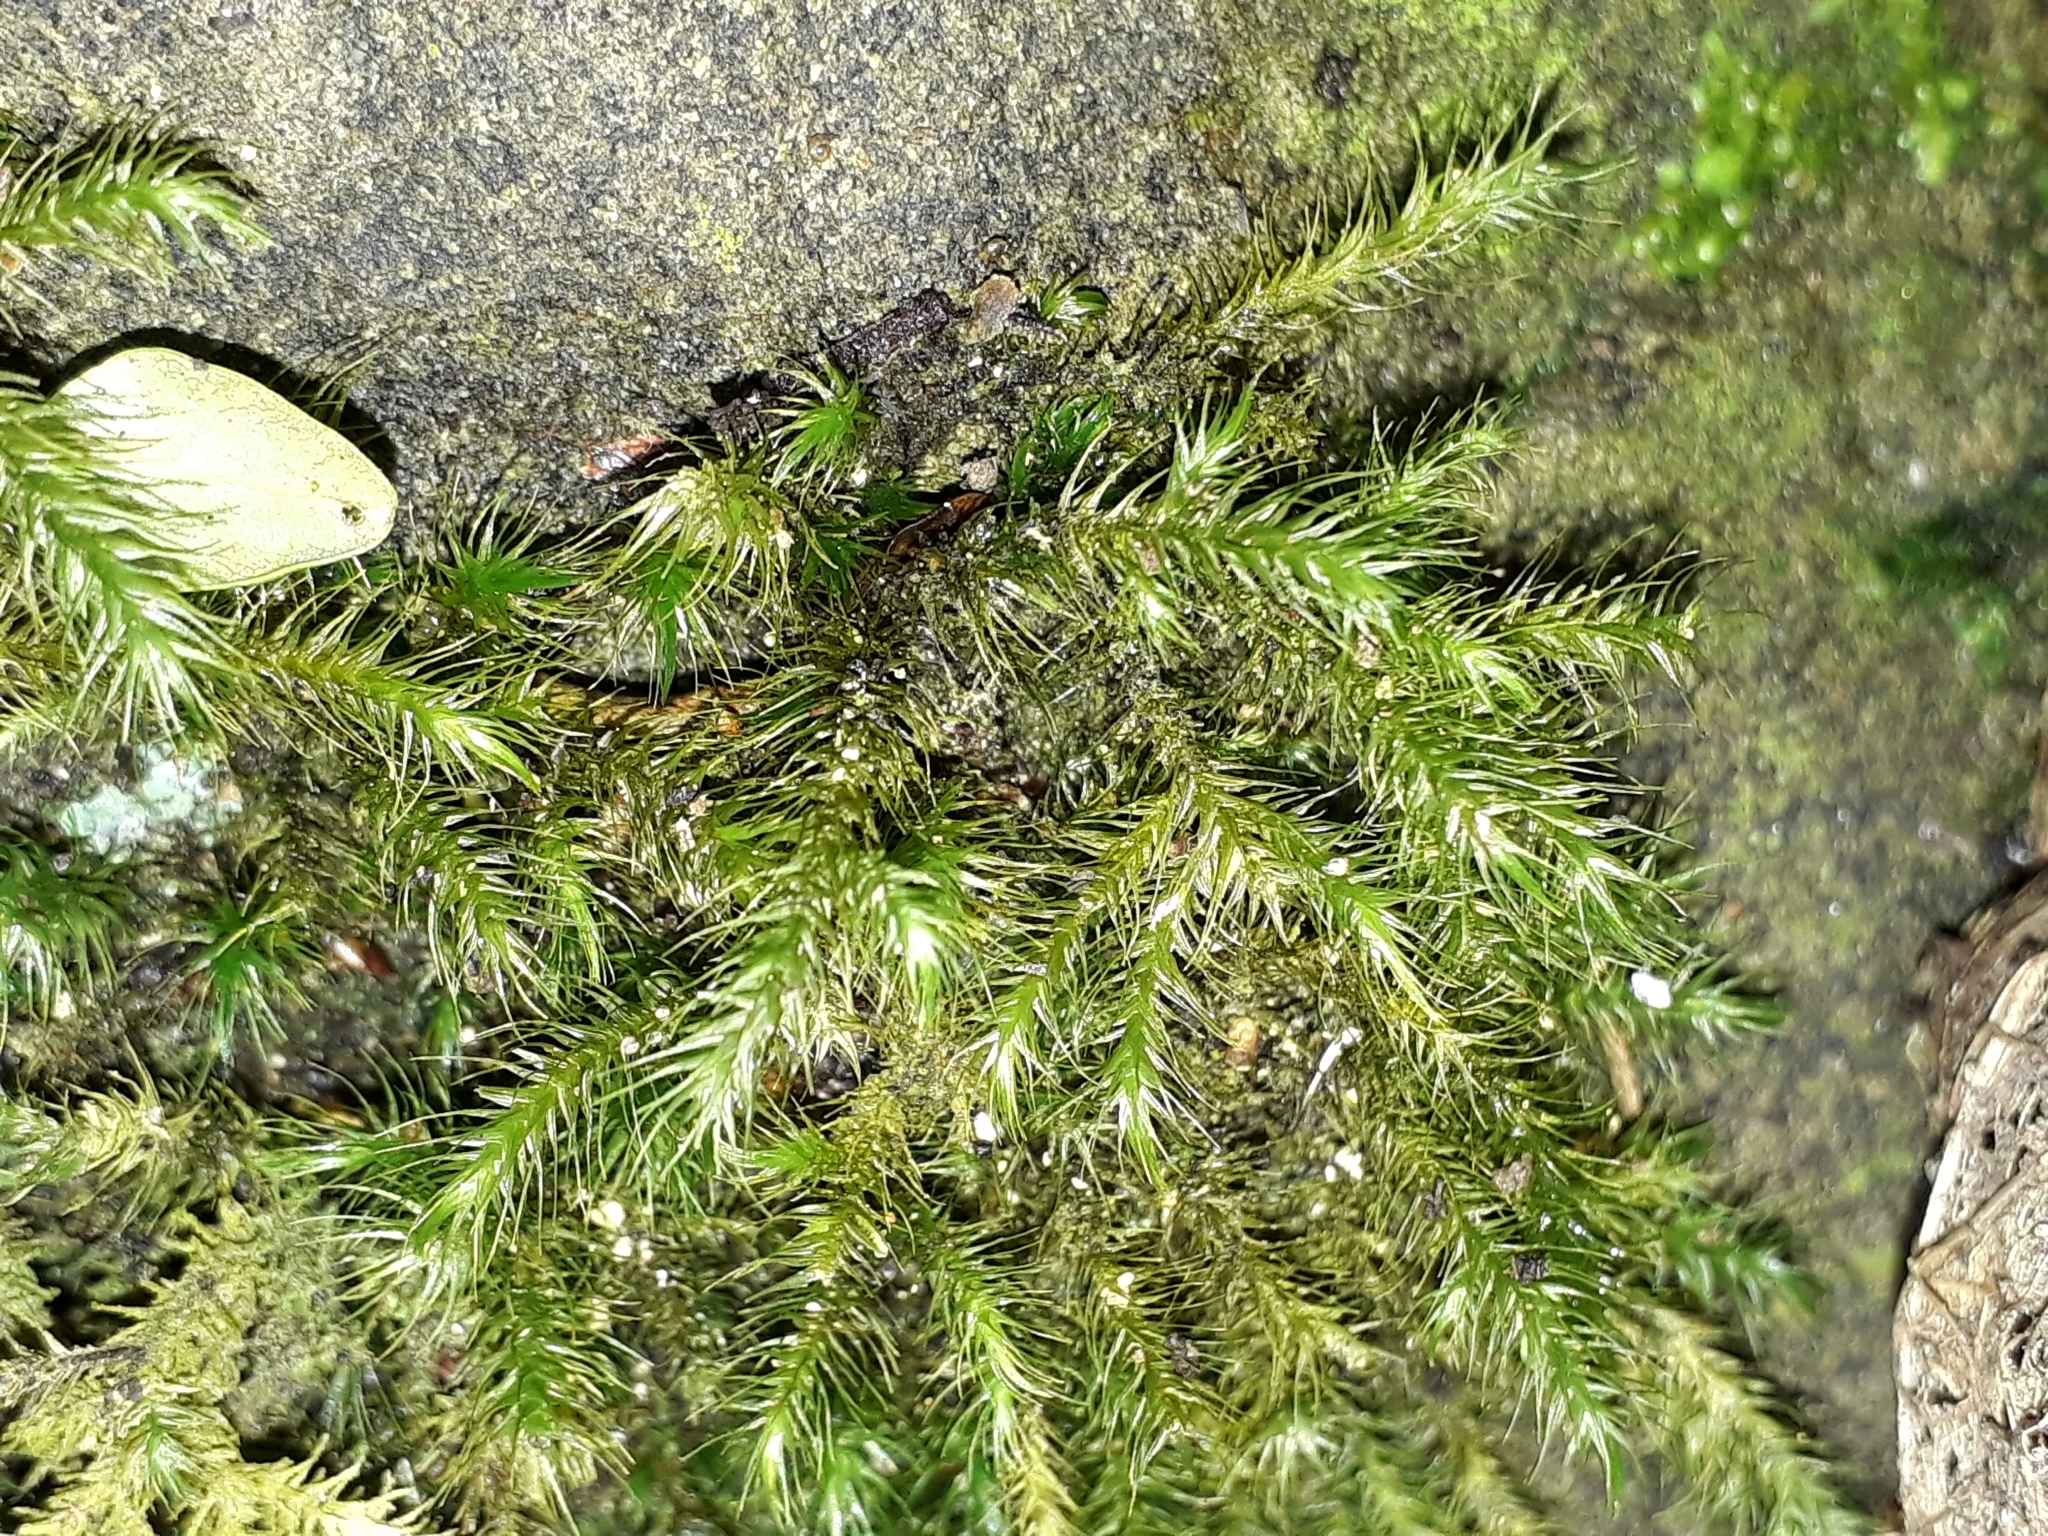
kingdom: Plantae
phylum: Bryophyta
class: Bryopsida
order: Hypnales
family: Neckeraceae
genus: Echinodiopsis
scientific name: Echinodiopsis hispida
